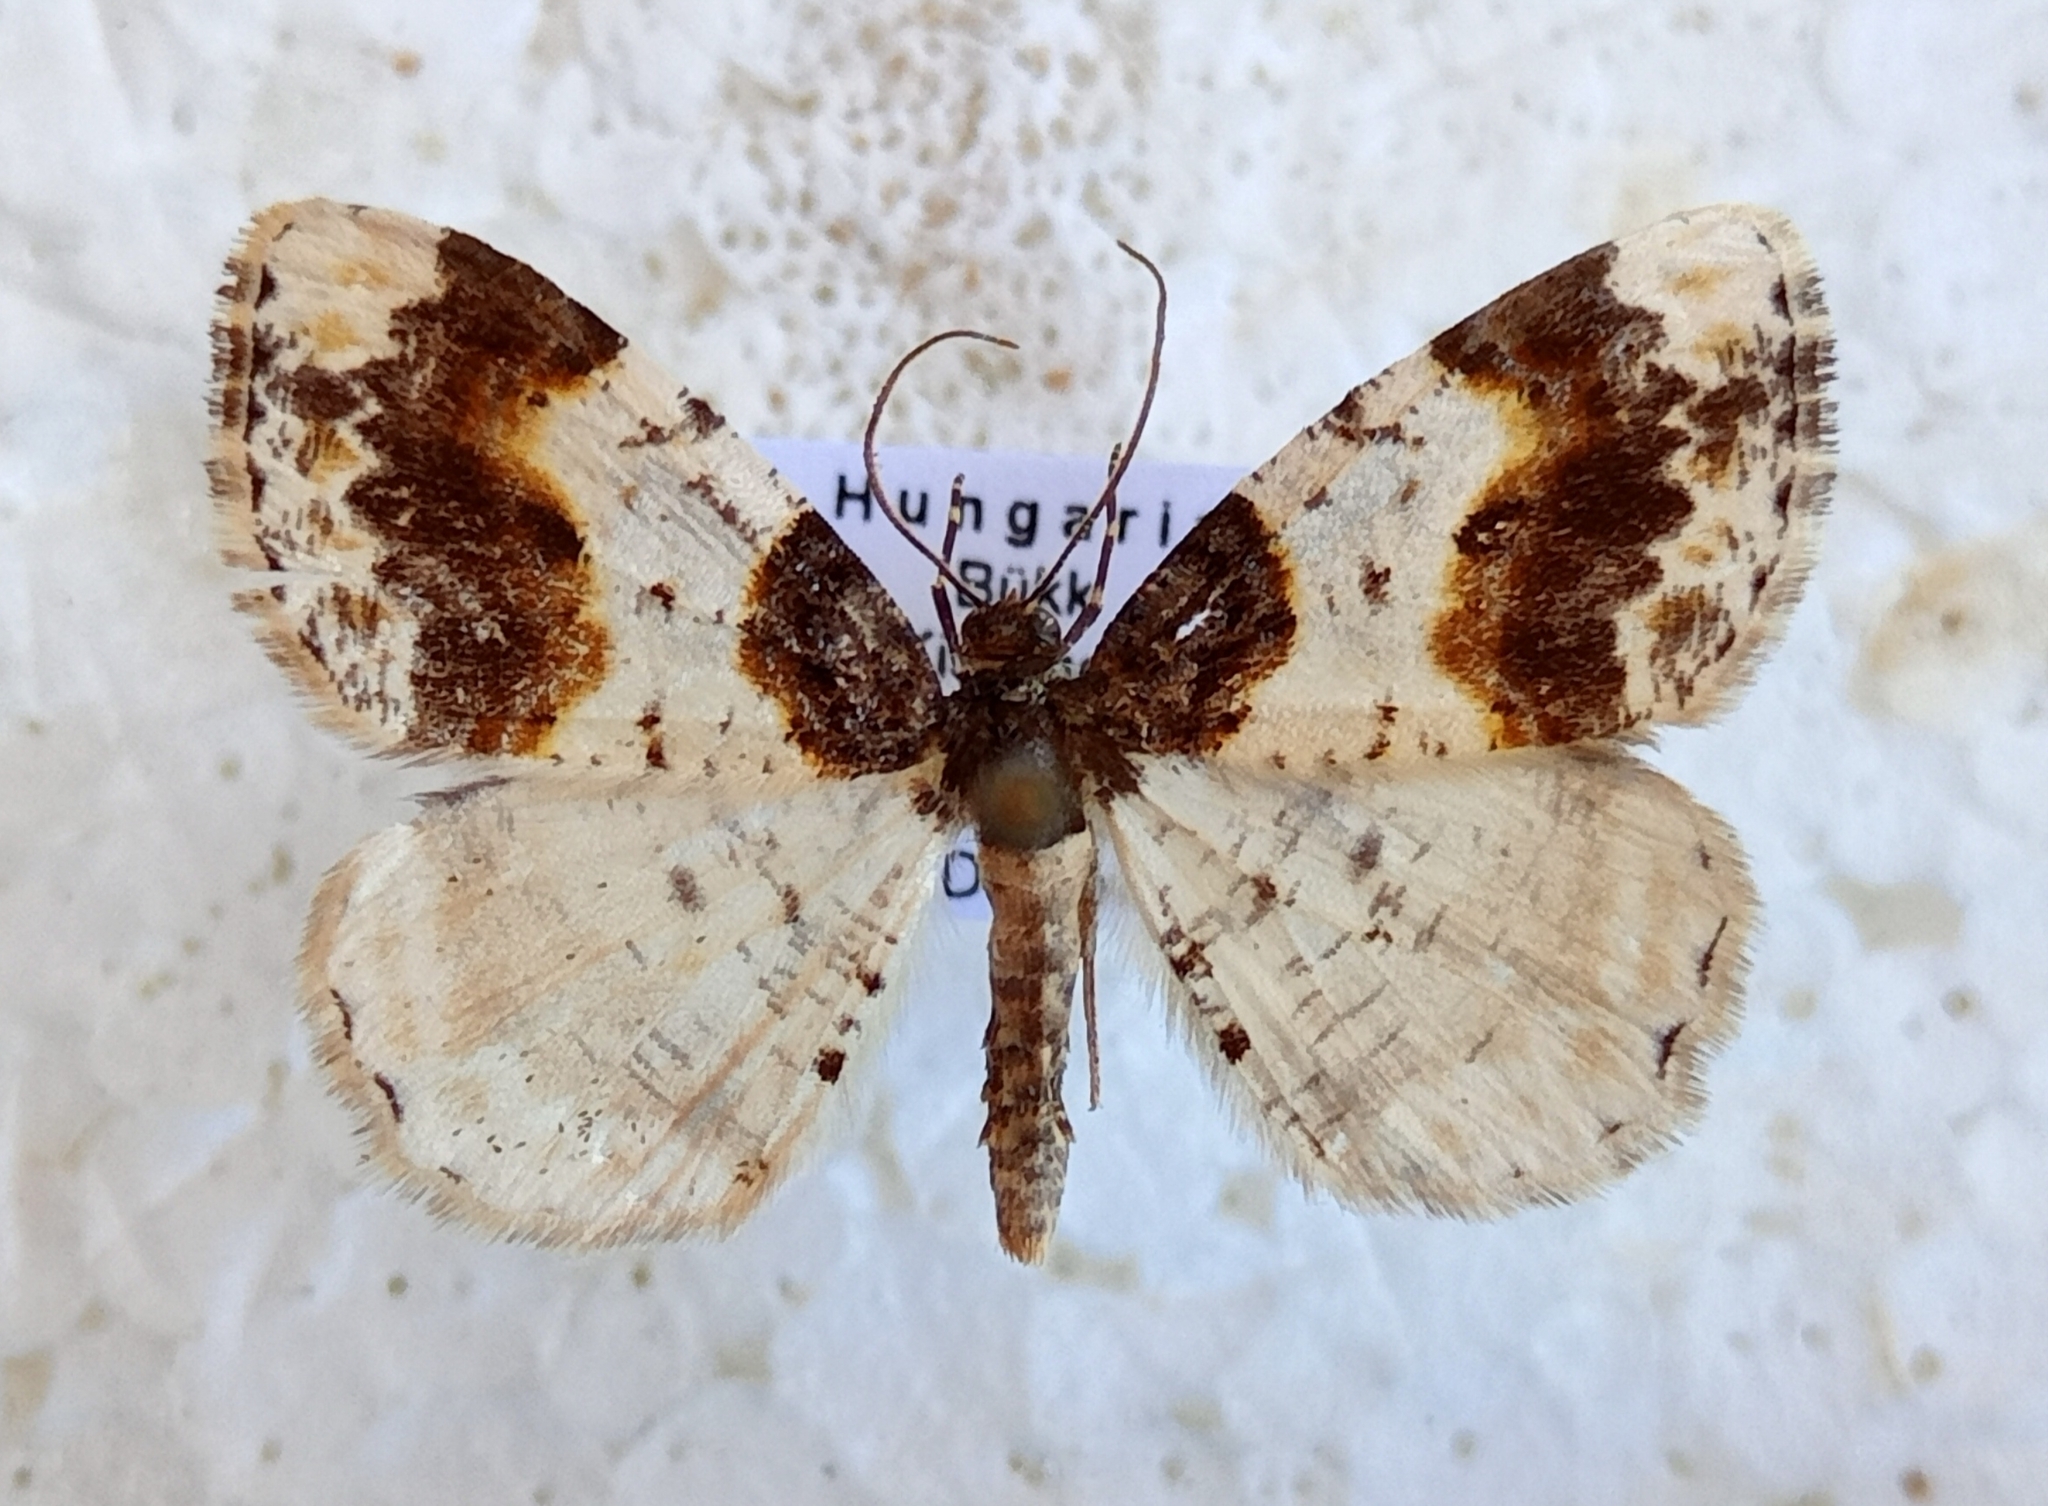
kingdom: Animalia
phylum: Arthropoda
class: Insecta
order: Lepidoptera
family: Geometridae
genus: Ligdia
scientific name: Ligdia adustata
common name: Scorched carpet
